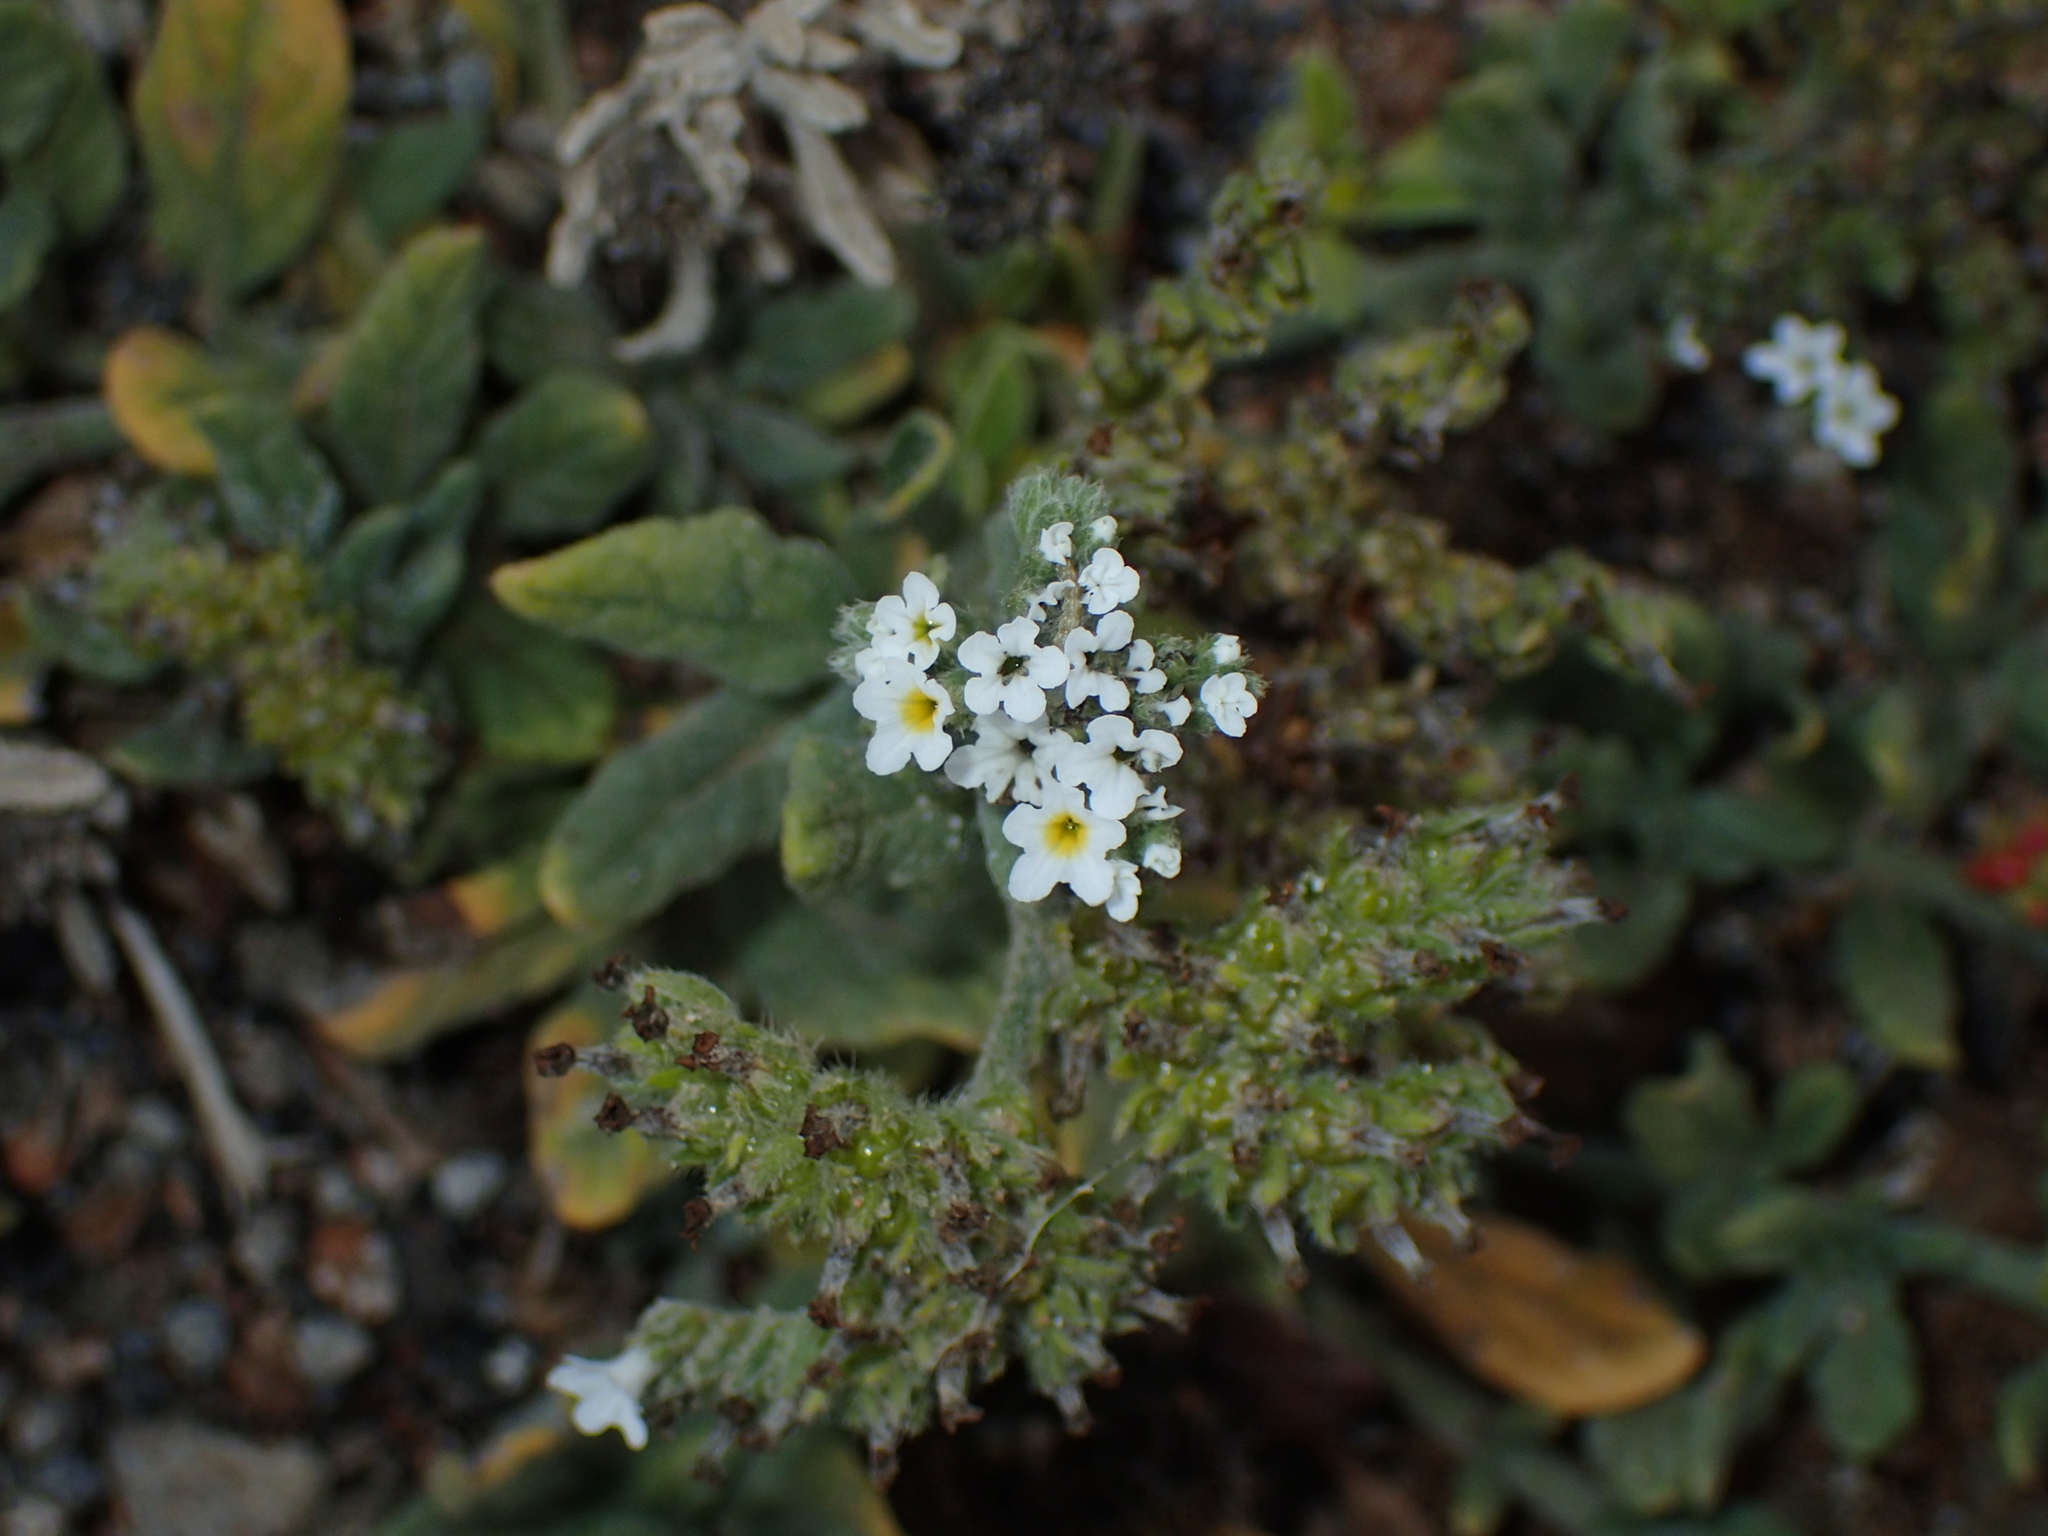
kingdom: Plantae
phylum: Tracheophyta
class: Magnoliopsida
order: Boraginales
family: Heliotropiaceae
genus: Heliotropium
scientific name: Heliotropium ramosissimum
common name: Wavy heliotrope
